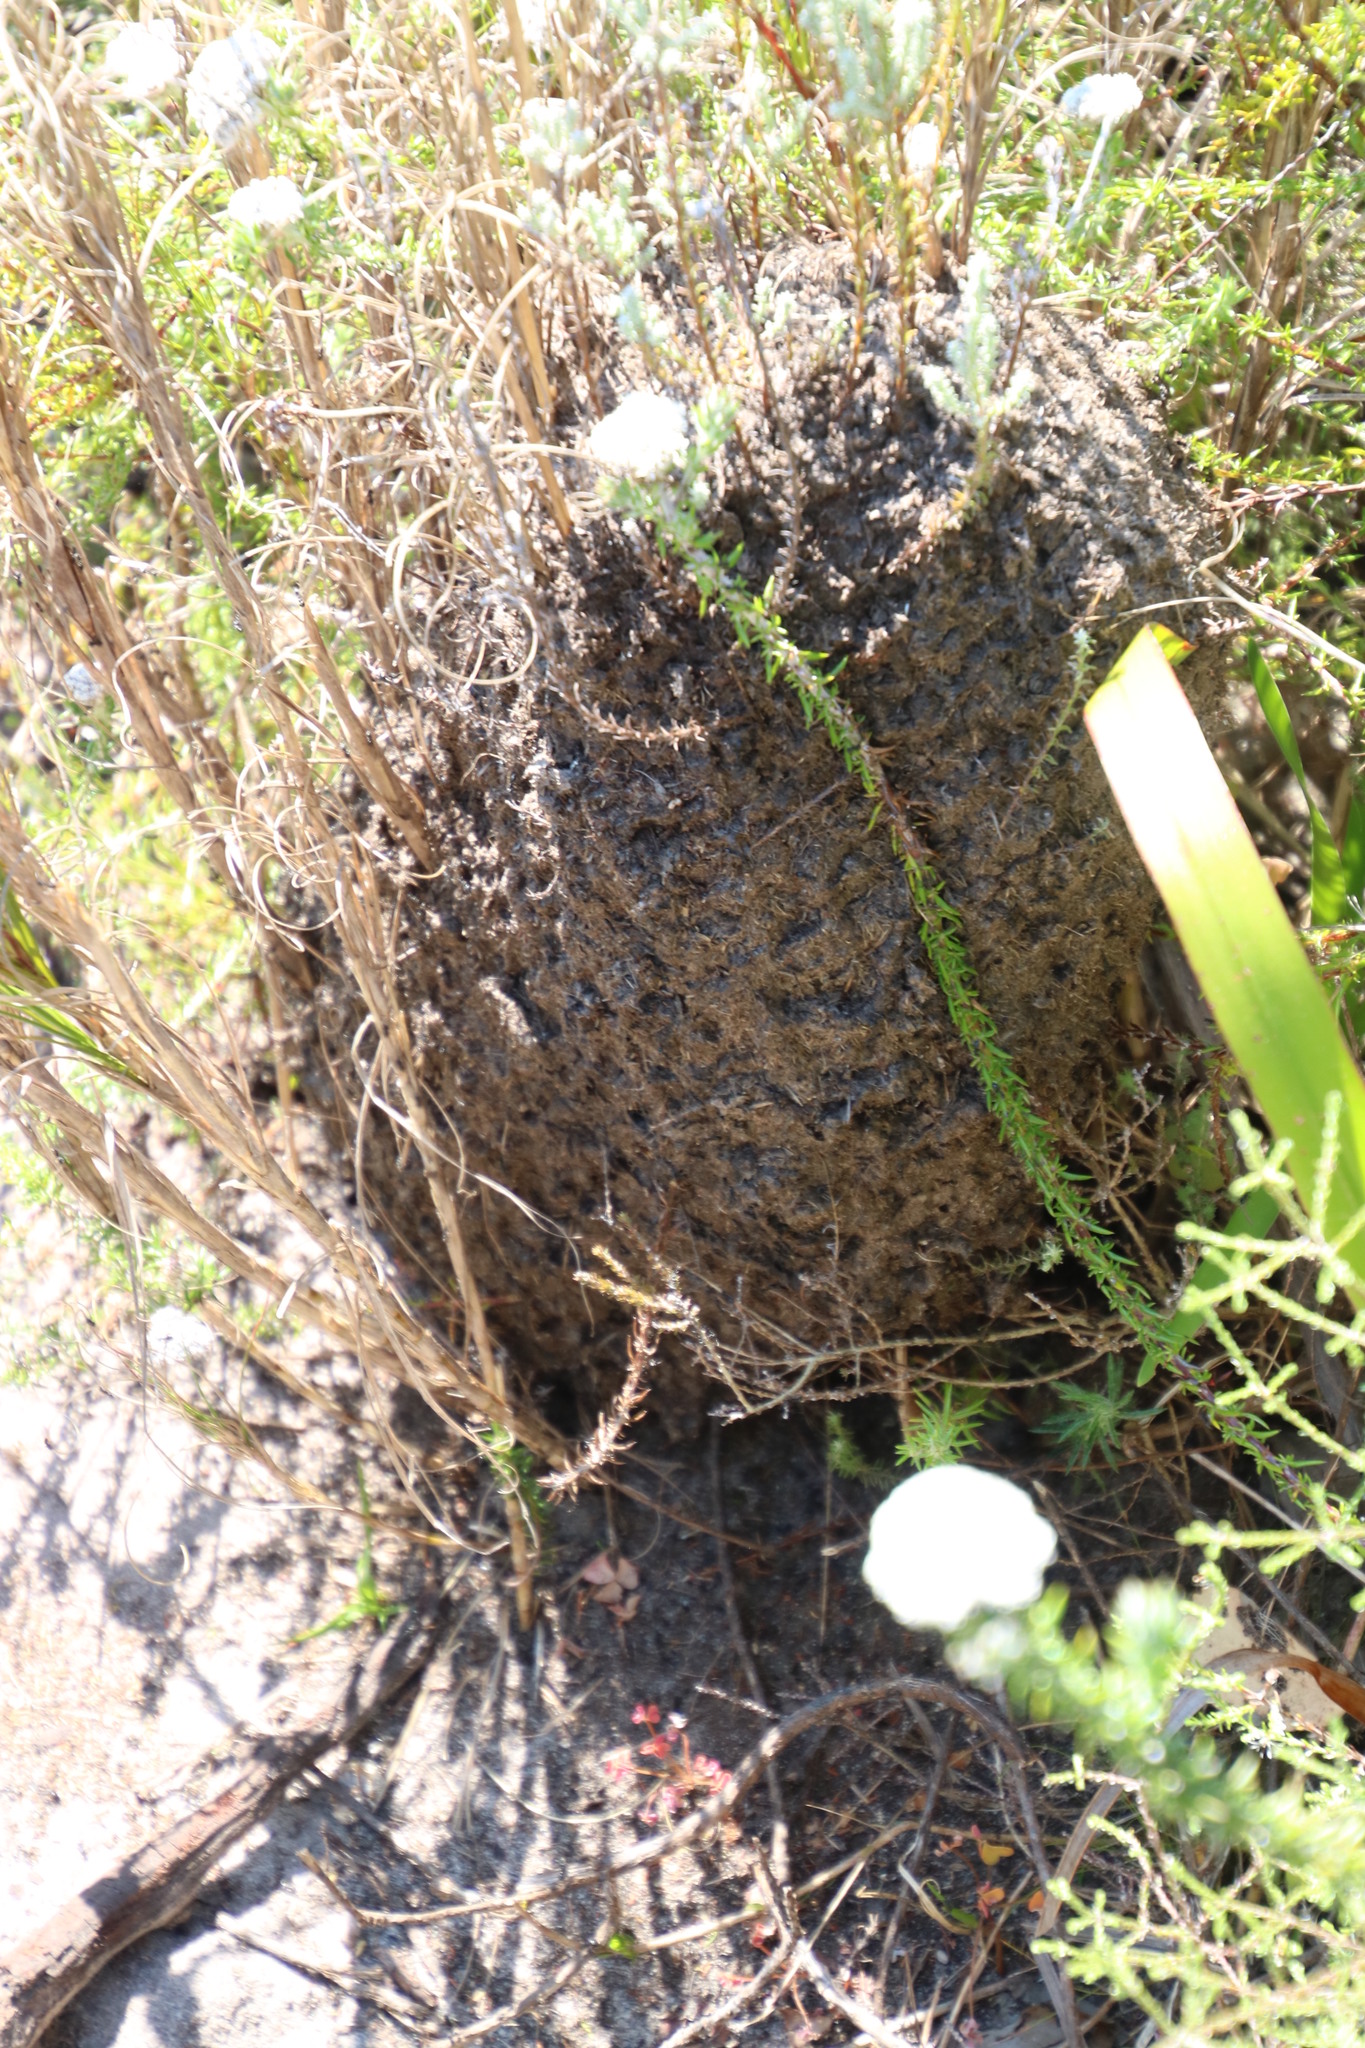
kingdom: Animalia
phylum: Arthropoda
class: Insecta
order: Hymenoptera
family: Formicidae
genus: Crematogaster
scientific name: Crematogaster peringueyi
